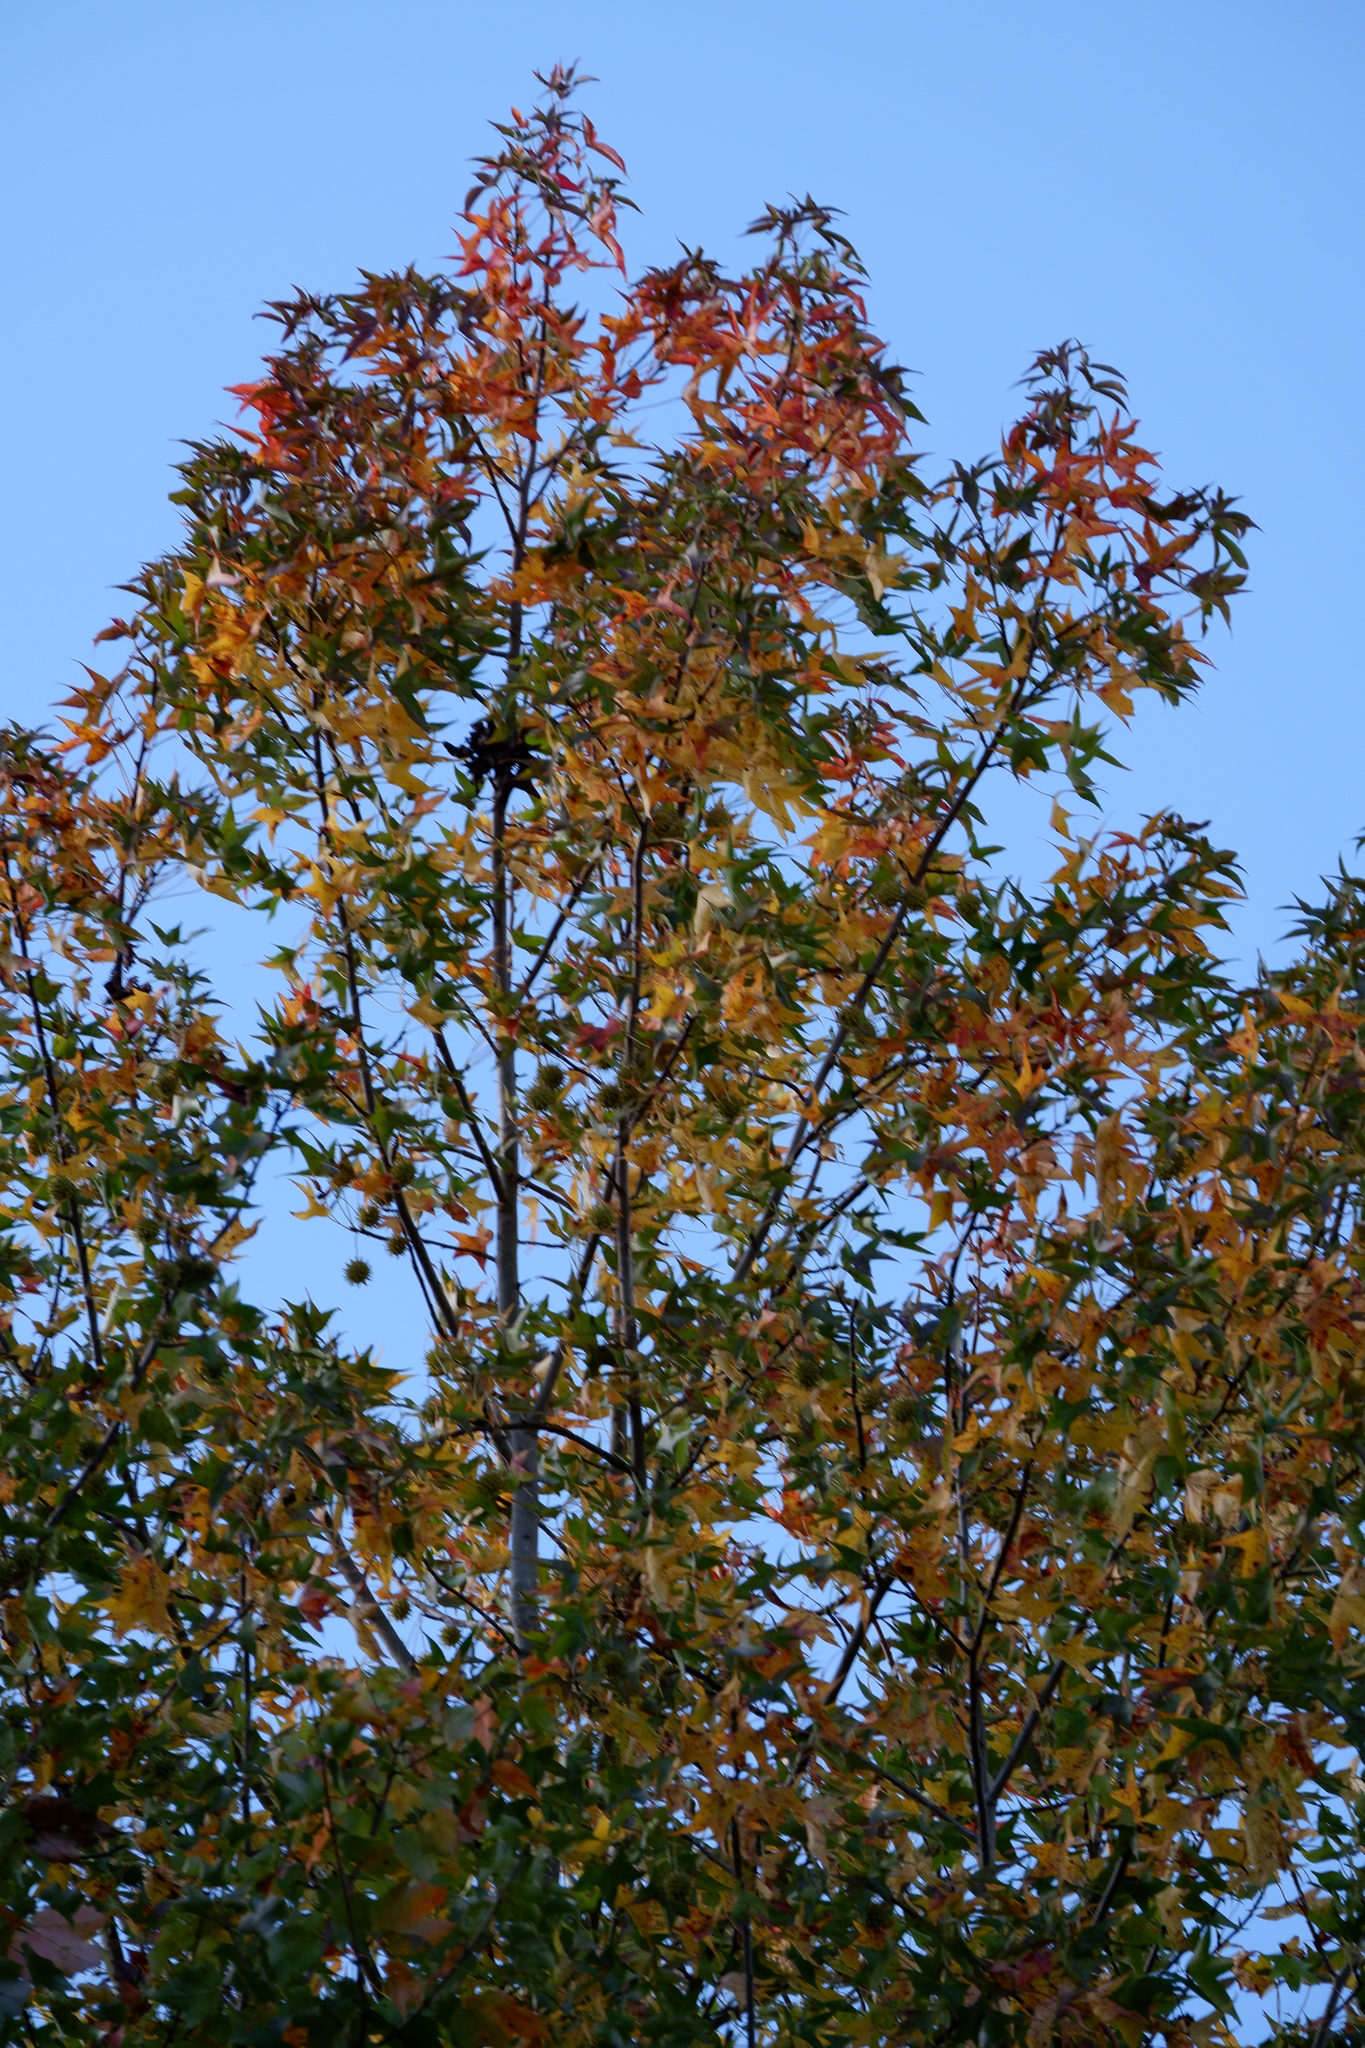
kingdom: Plantae
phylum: Tracheophyta
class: Magnoliopsida
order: Saxifragales
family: Altingiaceae
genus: Liquidambar
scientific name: Liquidambar styraciflua
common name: Sweet gum
